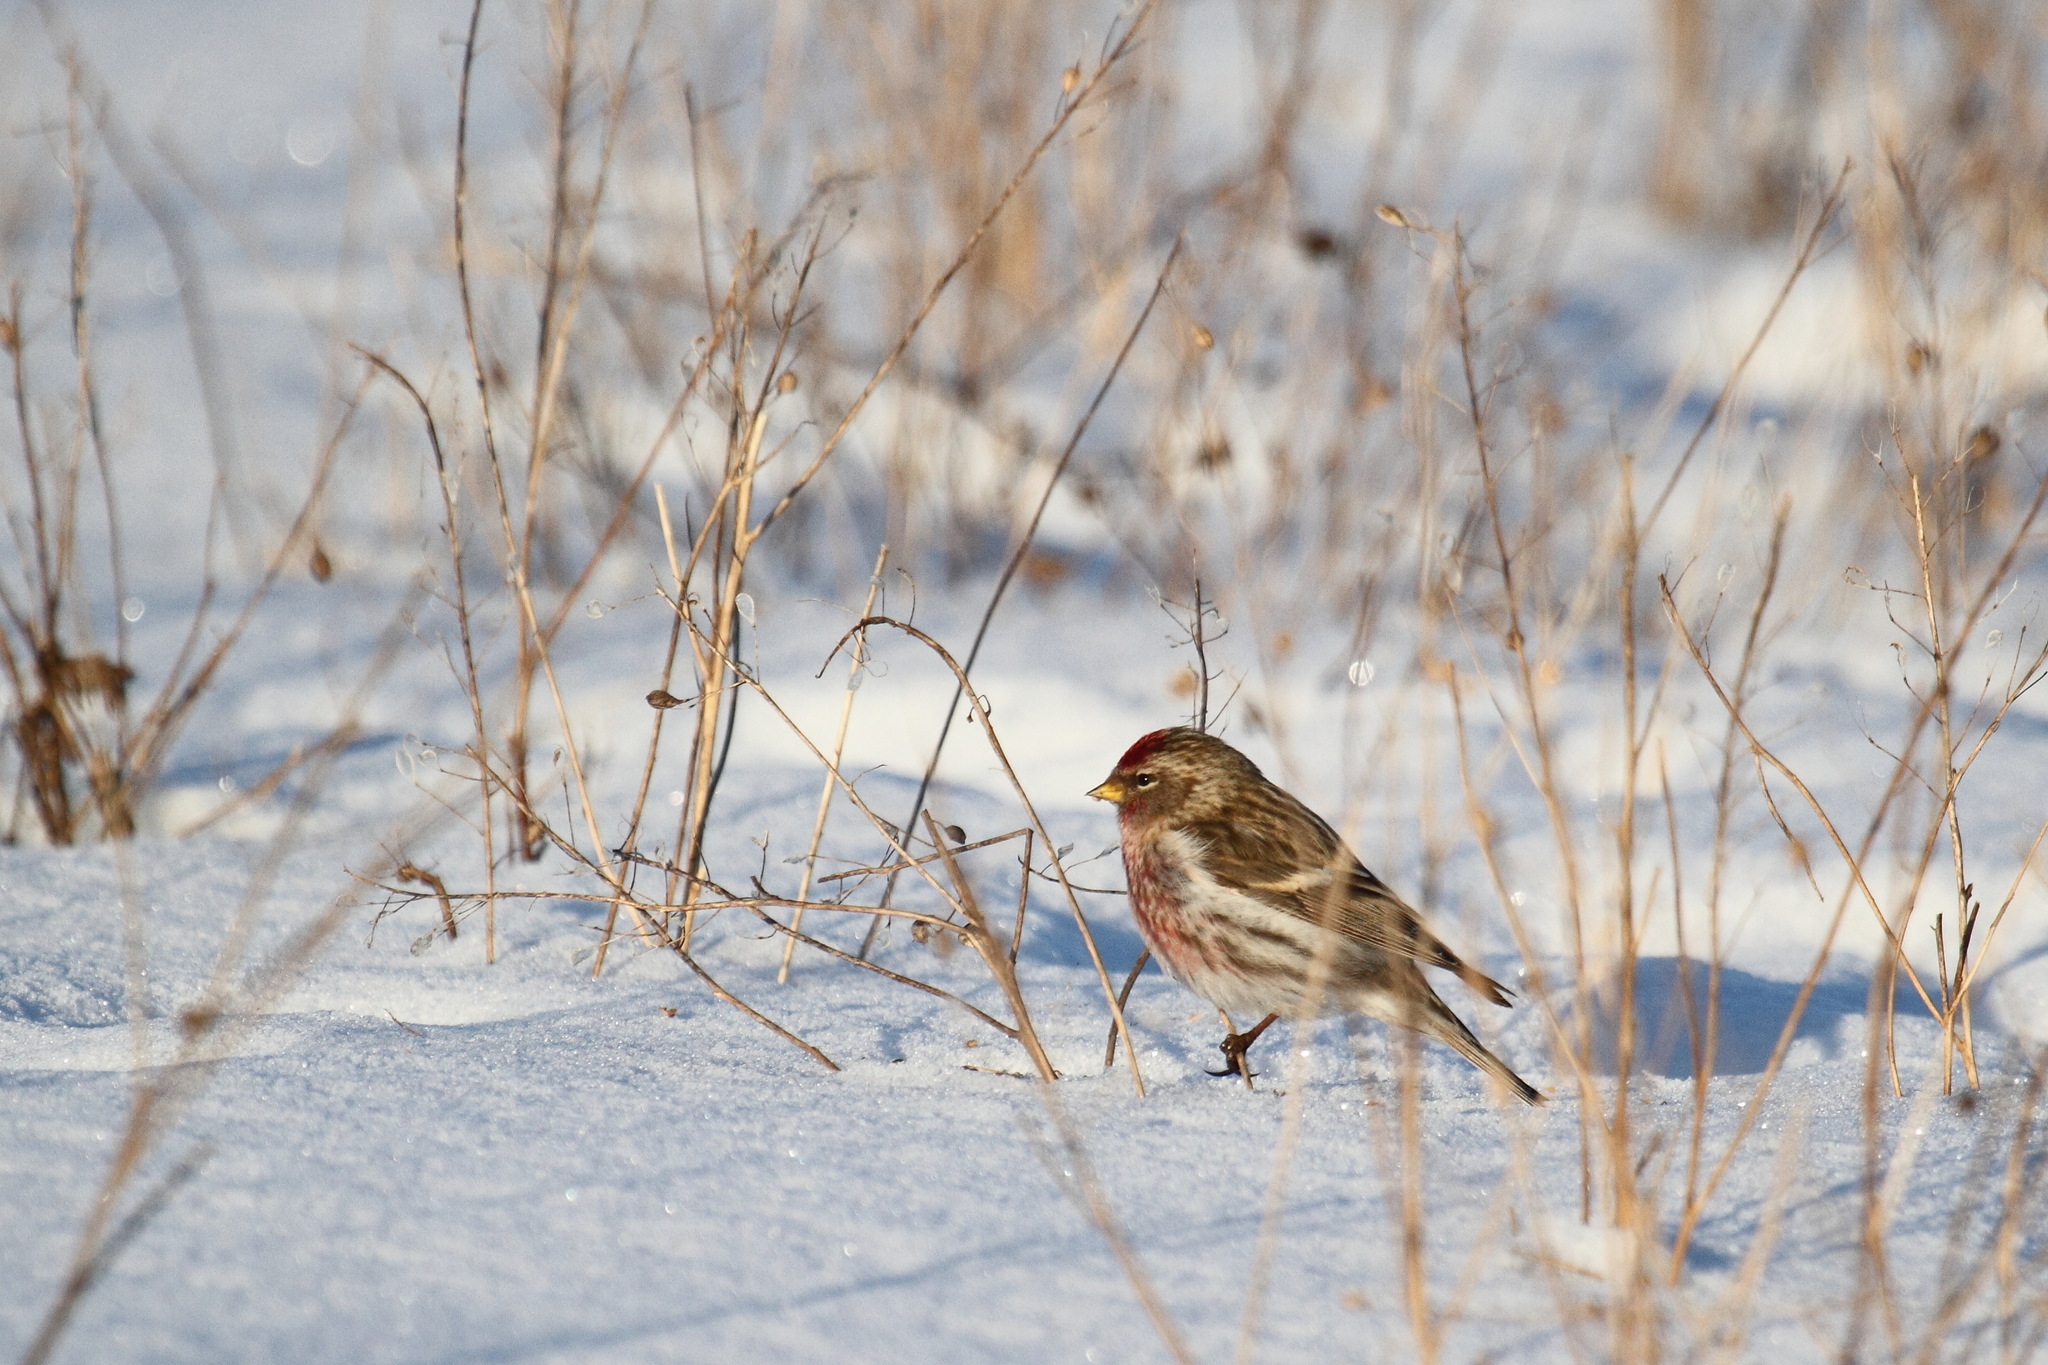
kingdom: Animalia
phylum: Chordata
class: Aves
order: Passeriformes
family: Fringillidae
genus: Acanthis
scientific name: Acanthis flammea
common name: Common redpoll
